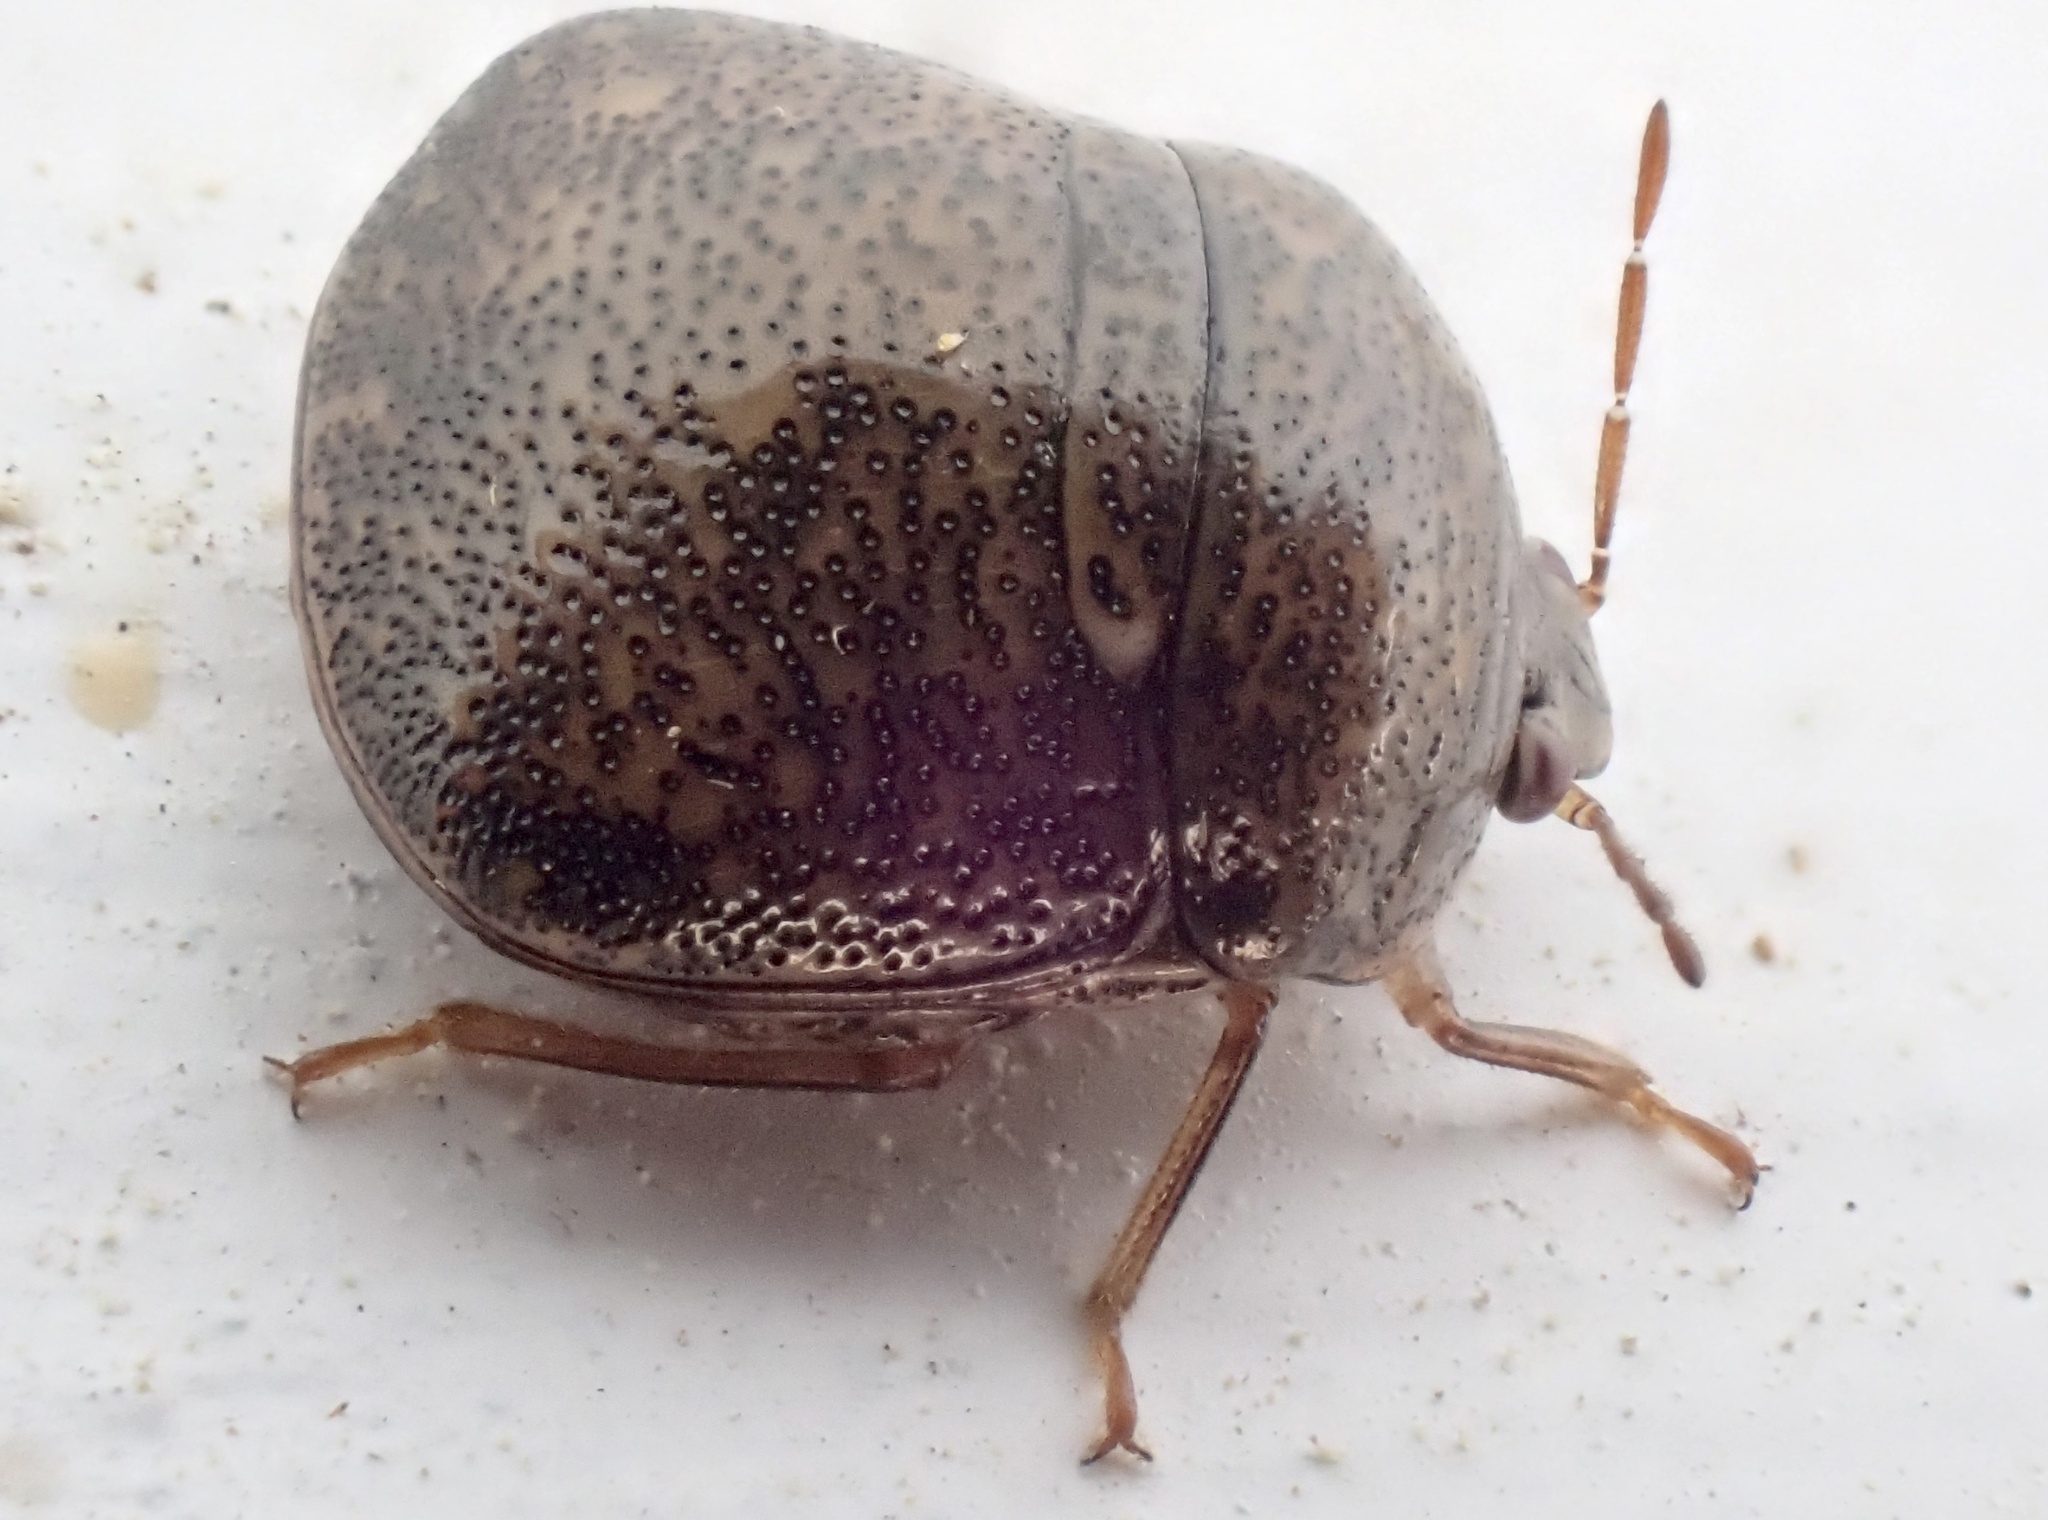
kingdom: Animalia
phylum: Arthropoda
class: Insecta
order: Hemiptera
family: Plataspidae
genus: Megacopta
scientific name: Megacopta cribraria
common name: Bean plataspid
